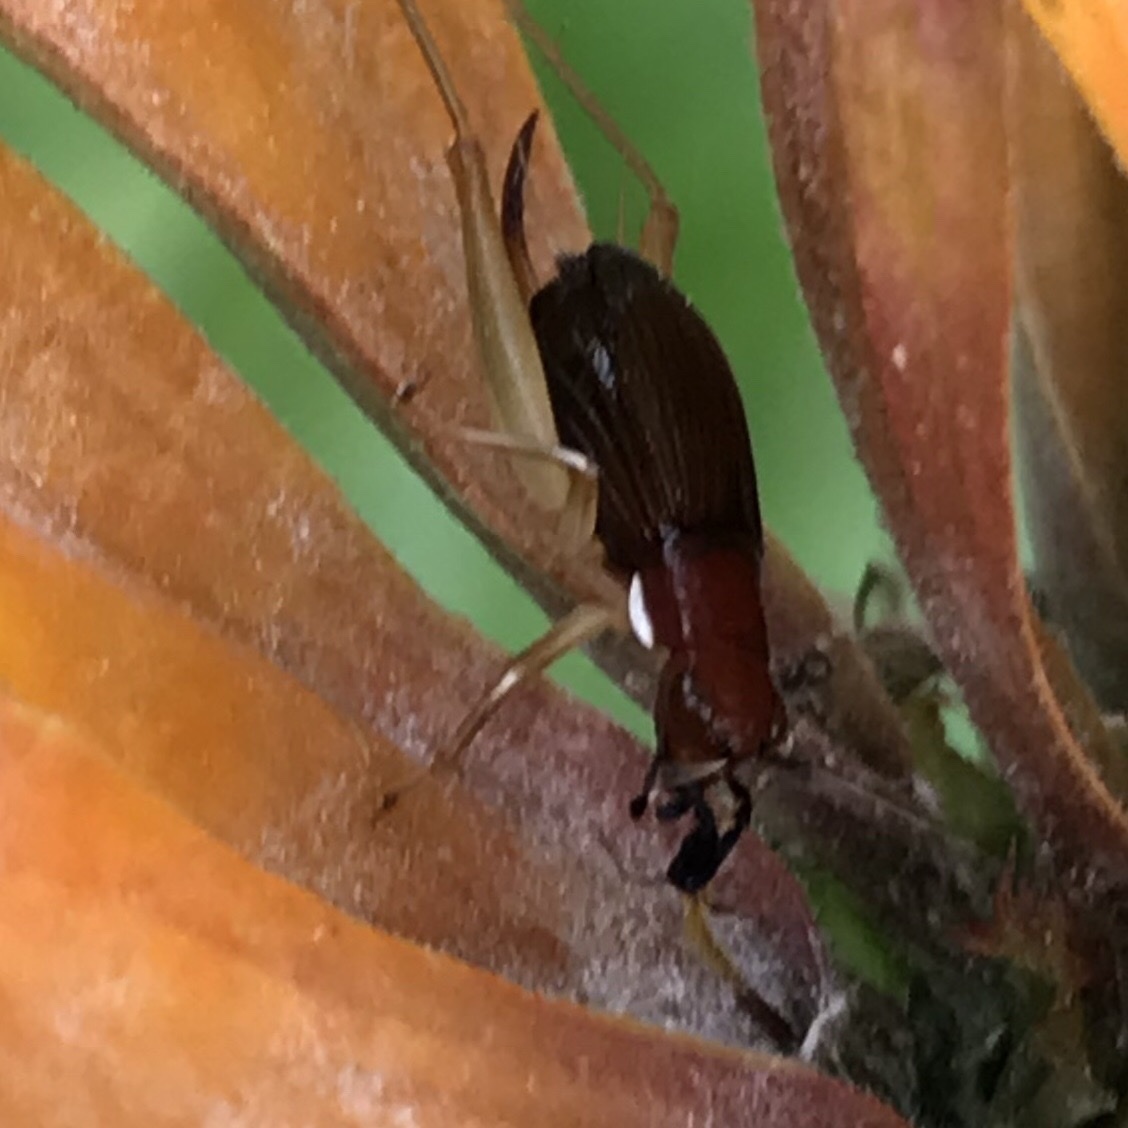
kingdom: Animalia
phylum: Arthropoda
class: Insecta
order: Orthoptera
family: Trigonidiidae
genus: Phyllopalpus
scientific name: Phyllopalpus pulchellus
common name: Handsome trig
